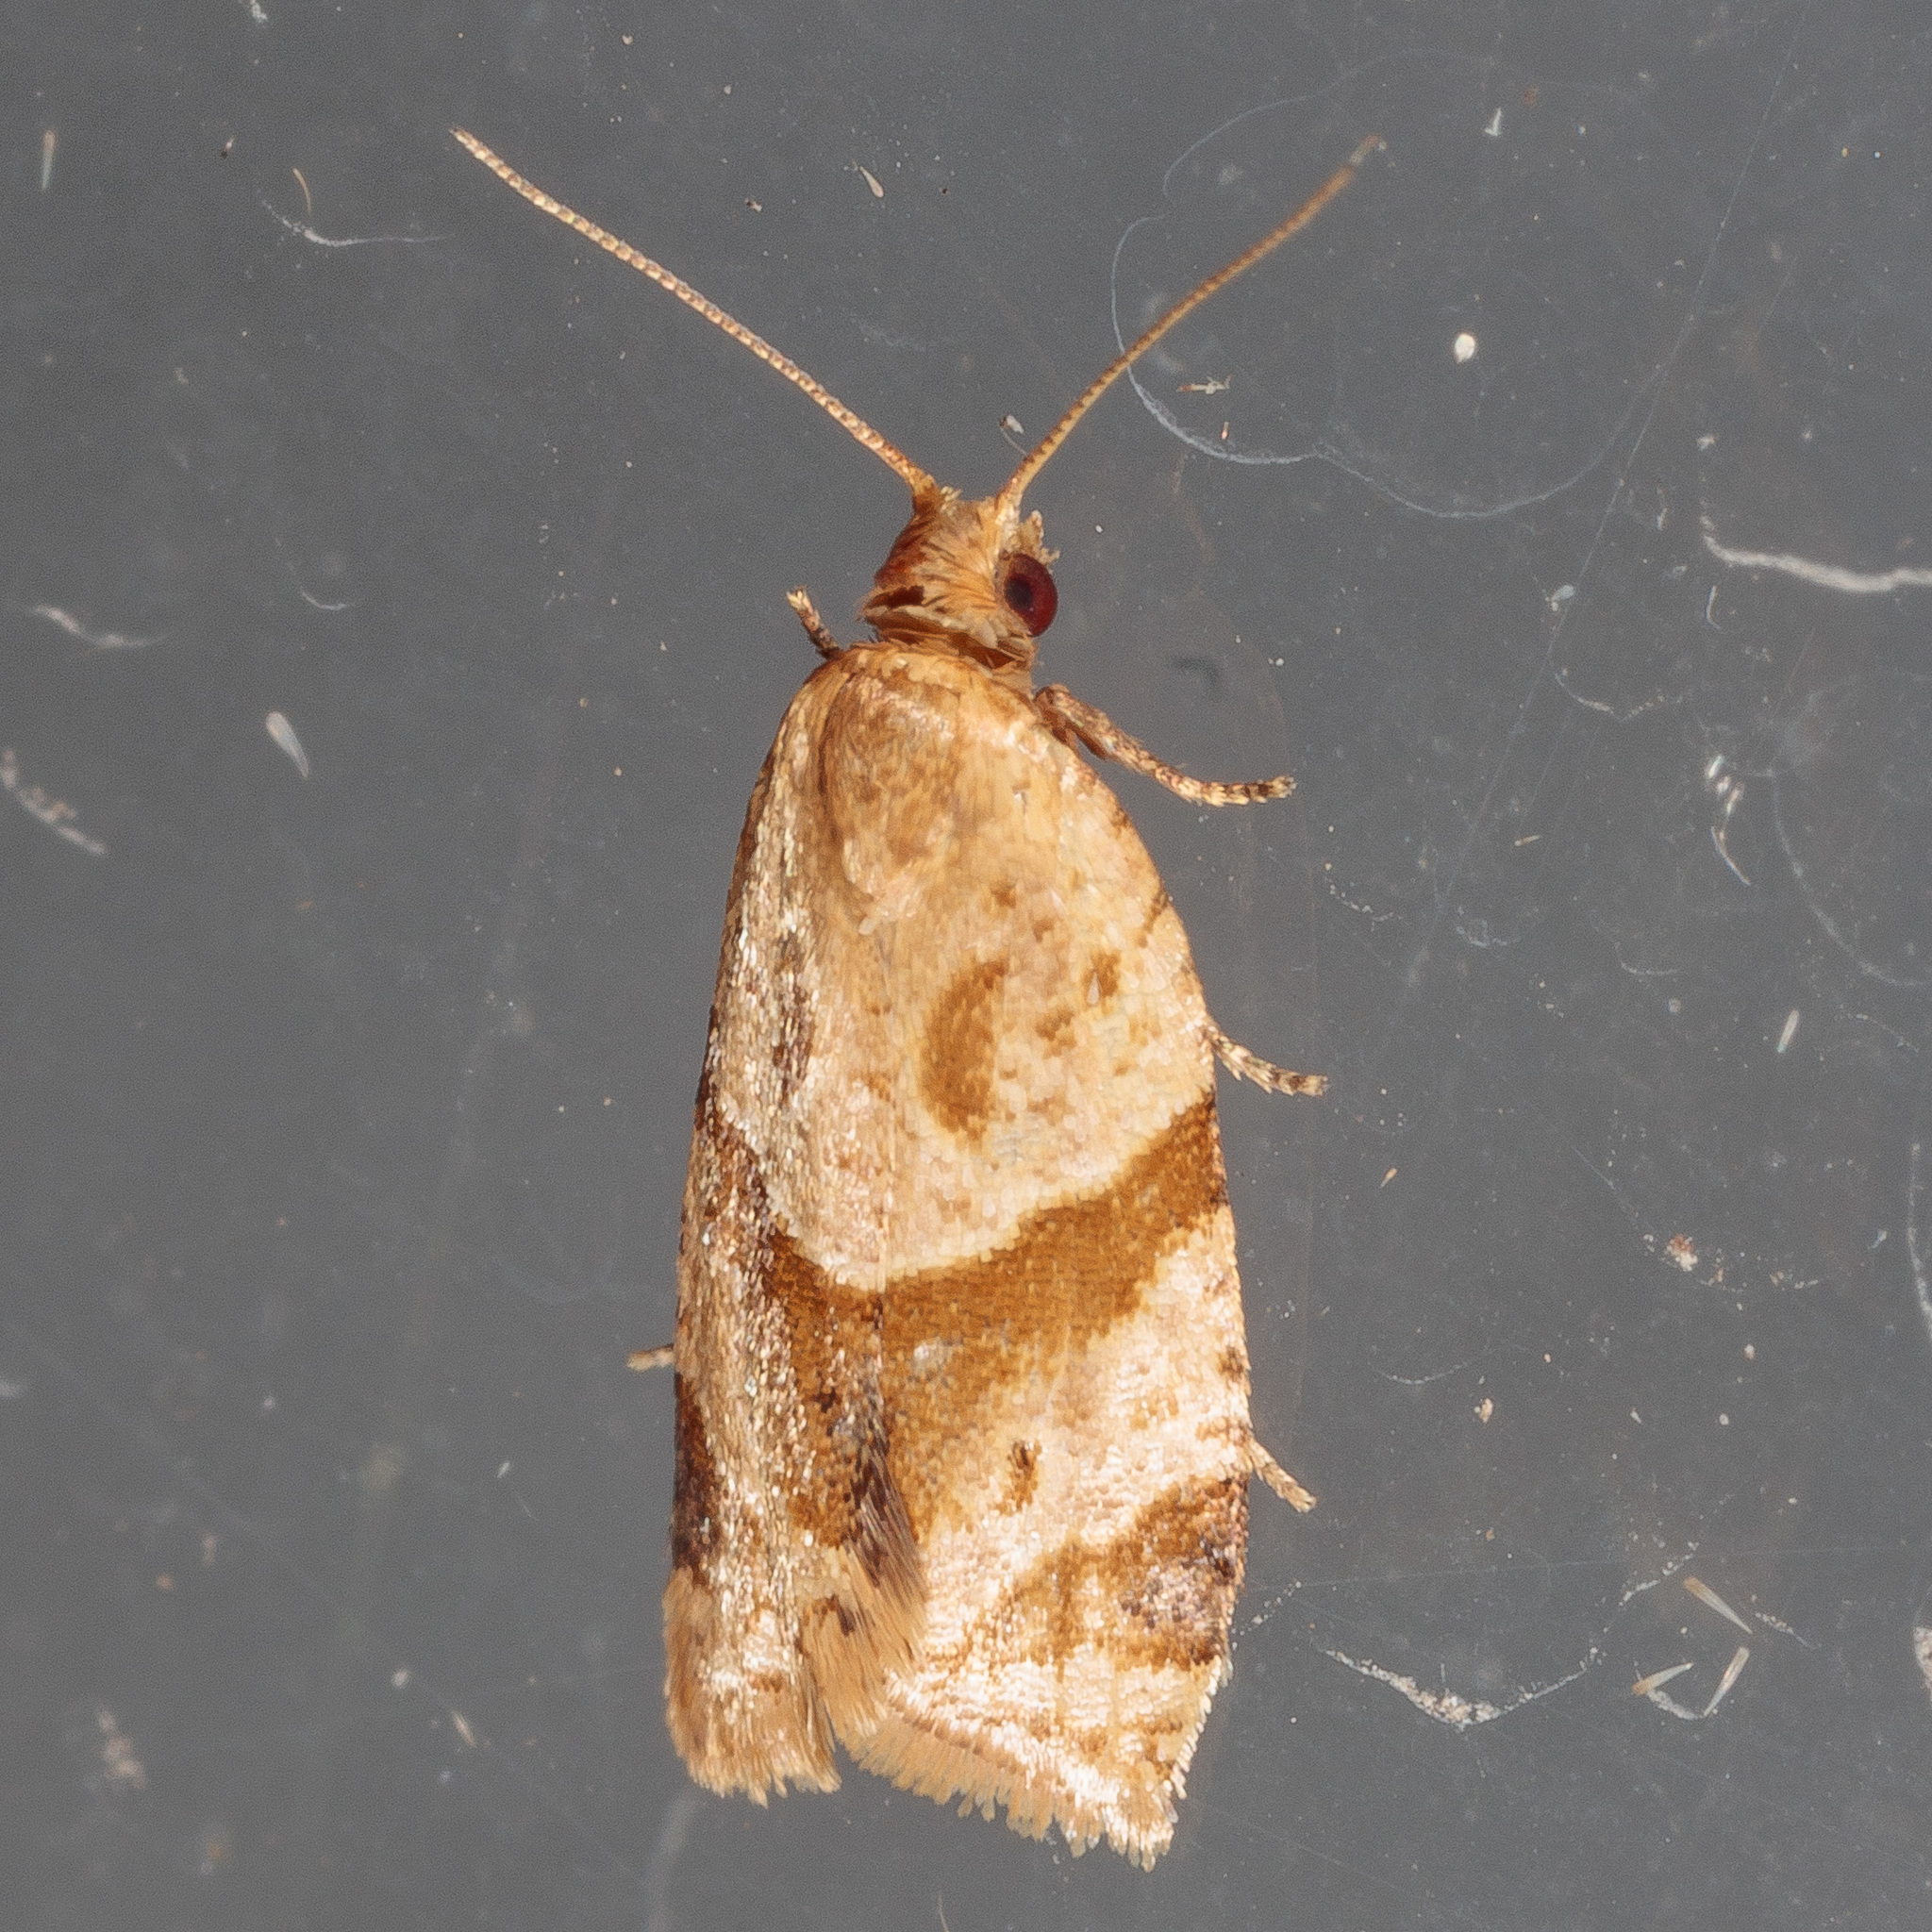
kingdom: Animalia
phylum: Arthropoda
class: Insecta
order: Lepidoptera
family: Tortricidae
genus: Clepsis
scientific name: Clepsis peritana
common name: Garden tortrix
